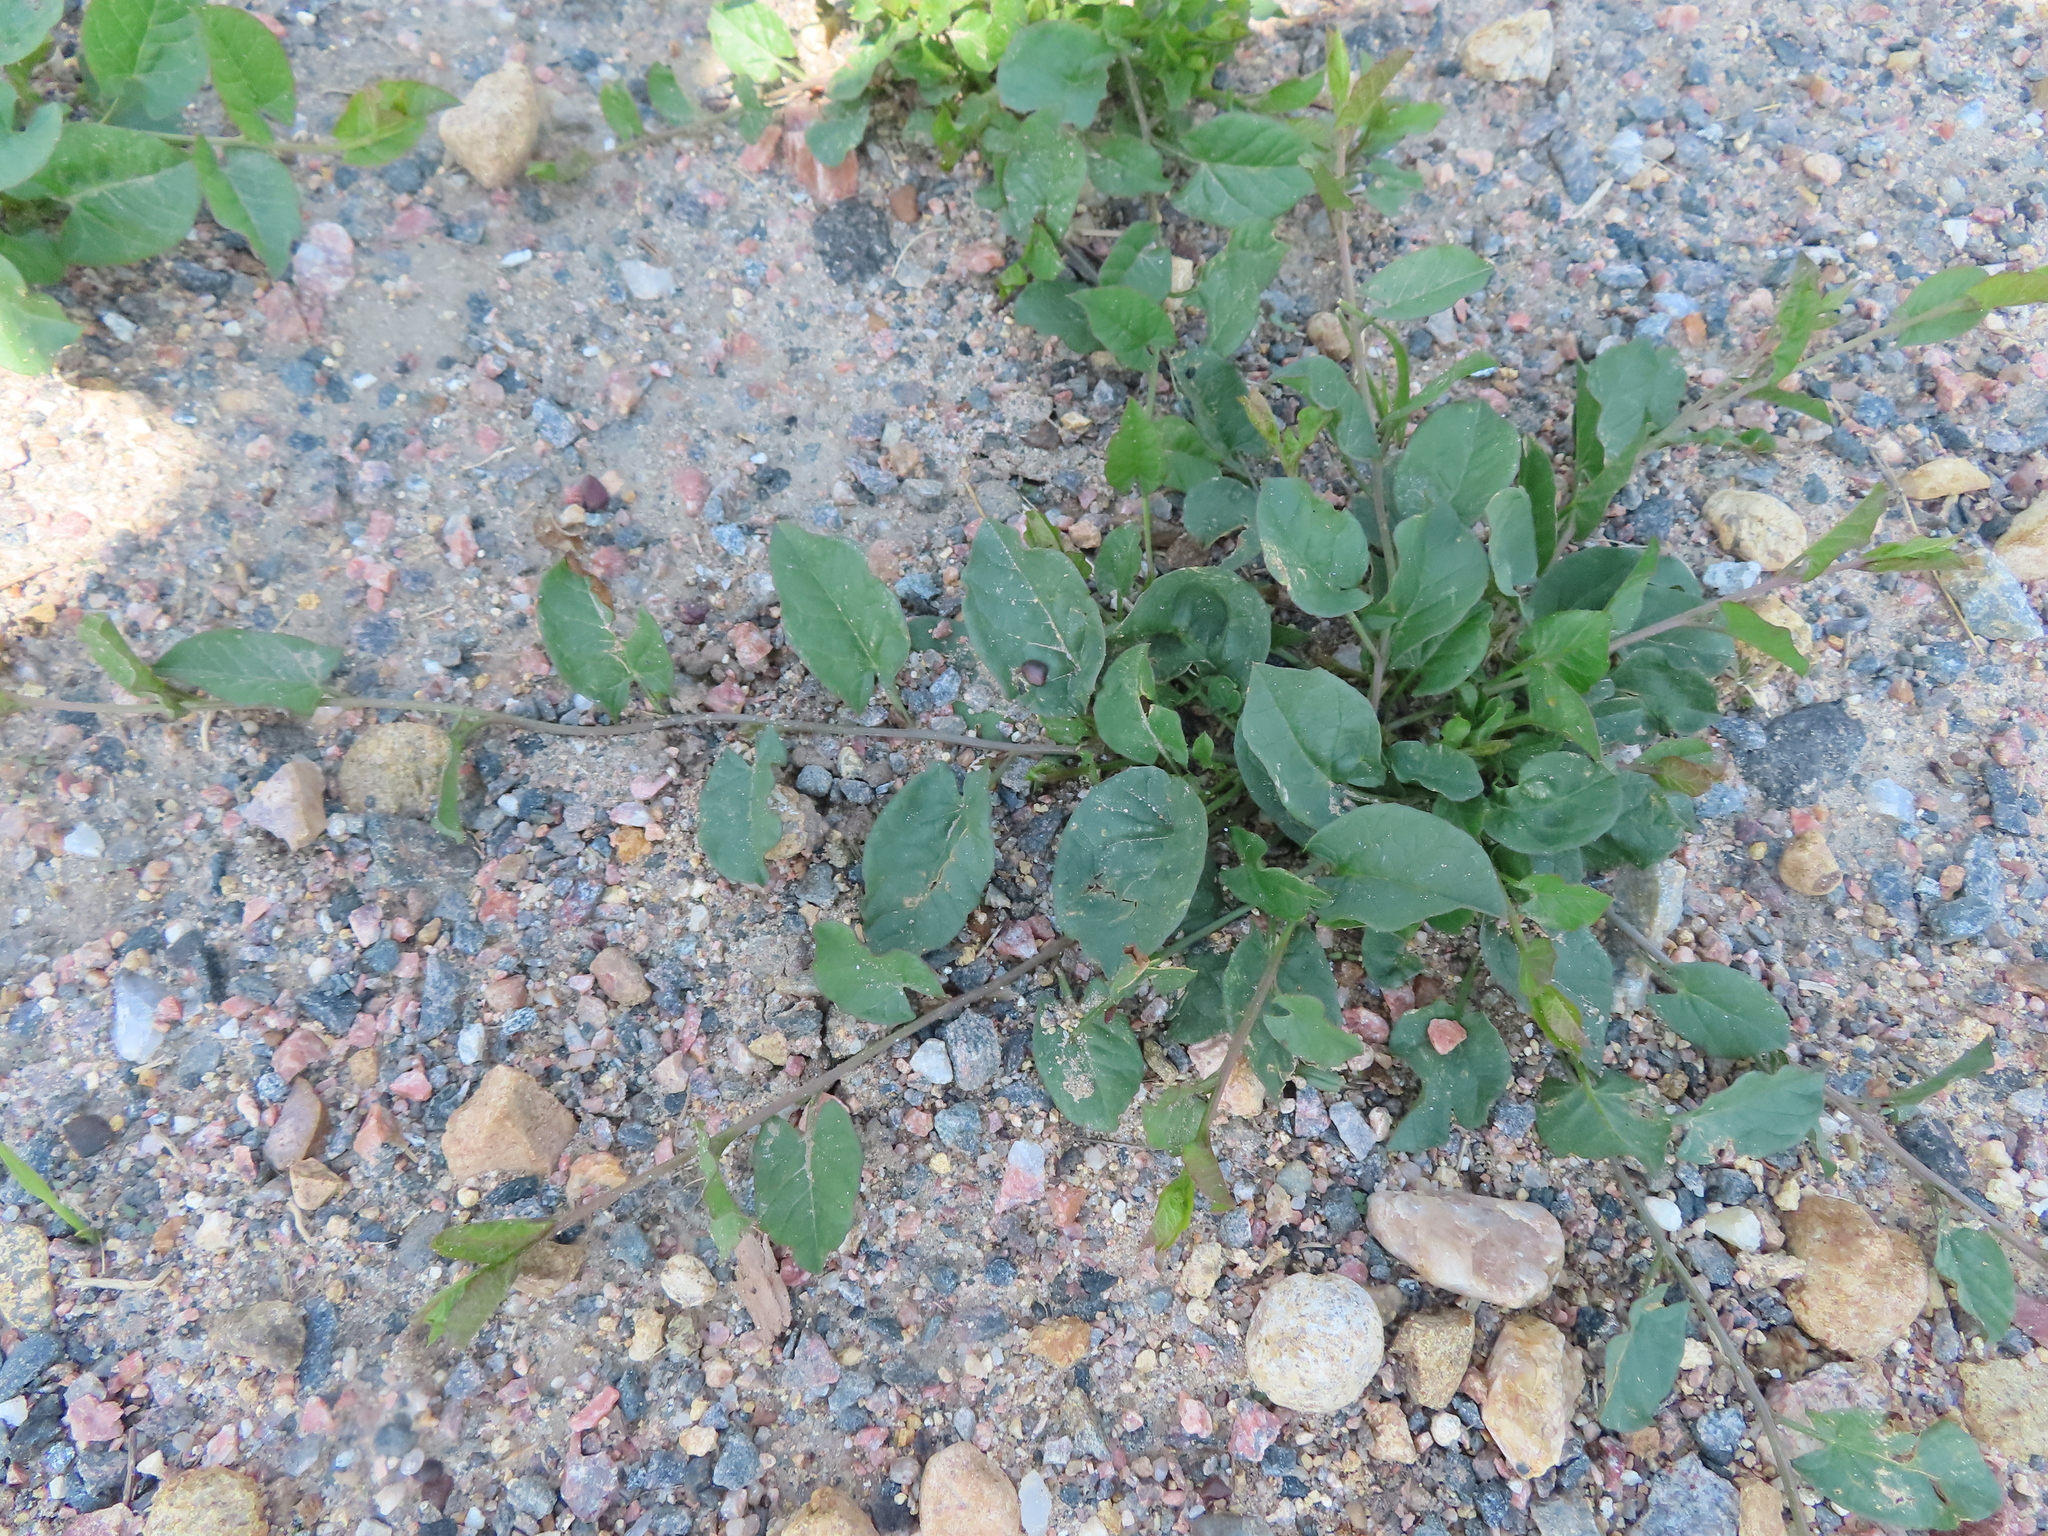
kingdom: Plantae
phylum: Tracheophyta
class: Magnoliopsida
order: Solanales
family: Convolvulaceae
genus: Convolvulus
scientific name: Convolvulus arvensis
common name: Field bindweed
